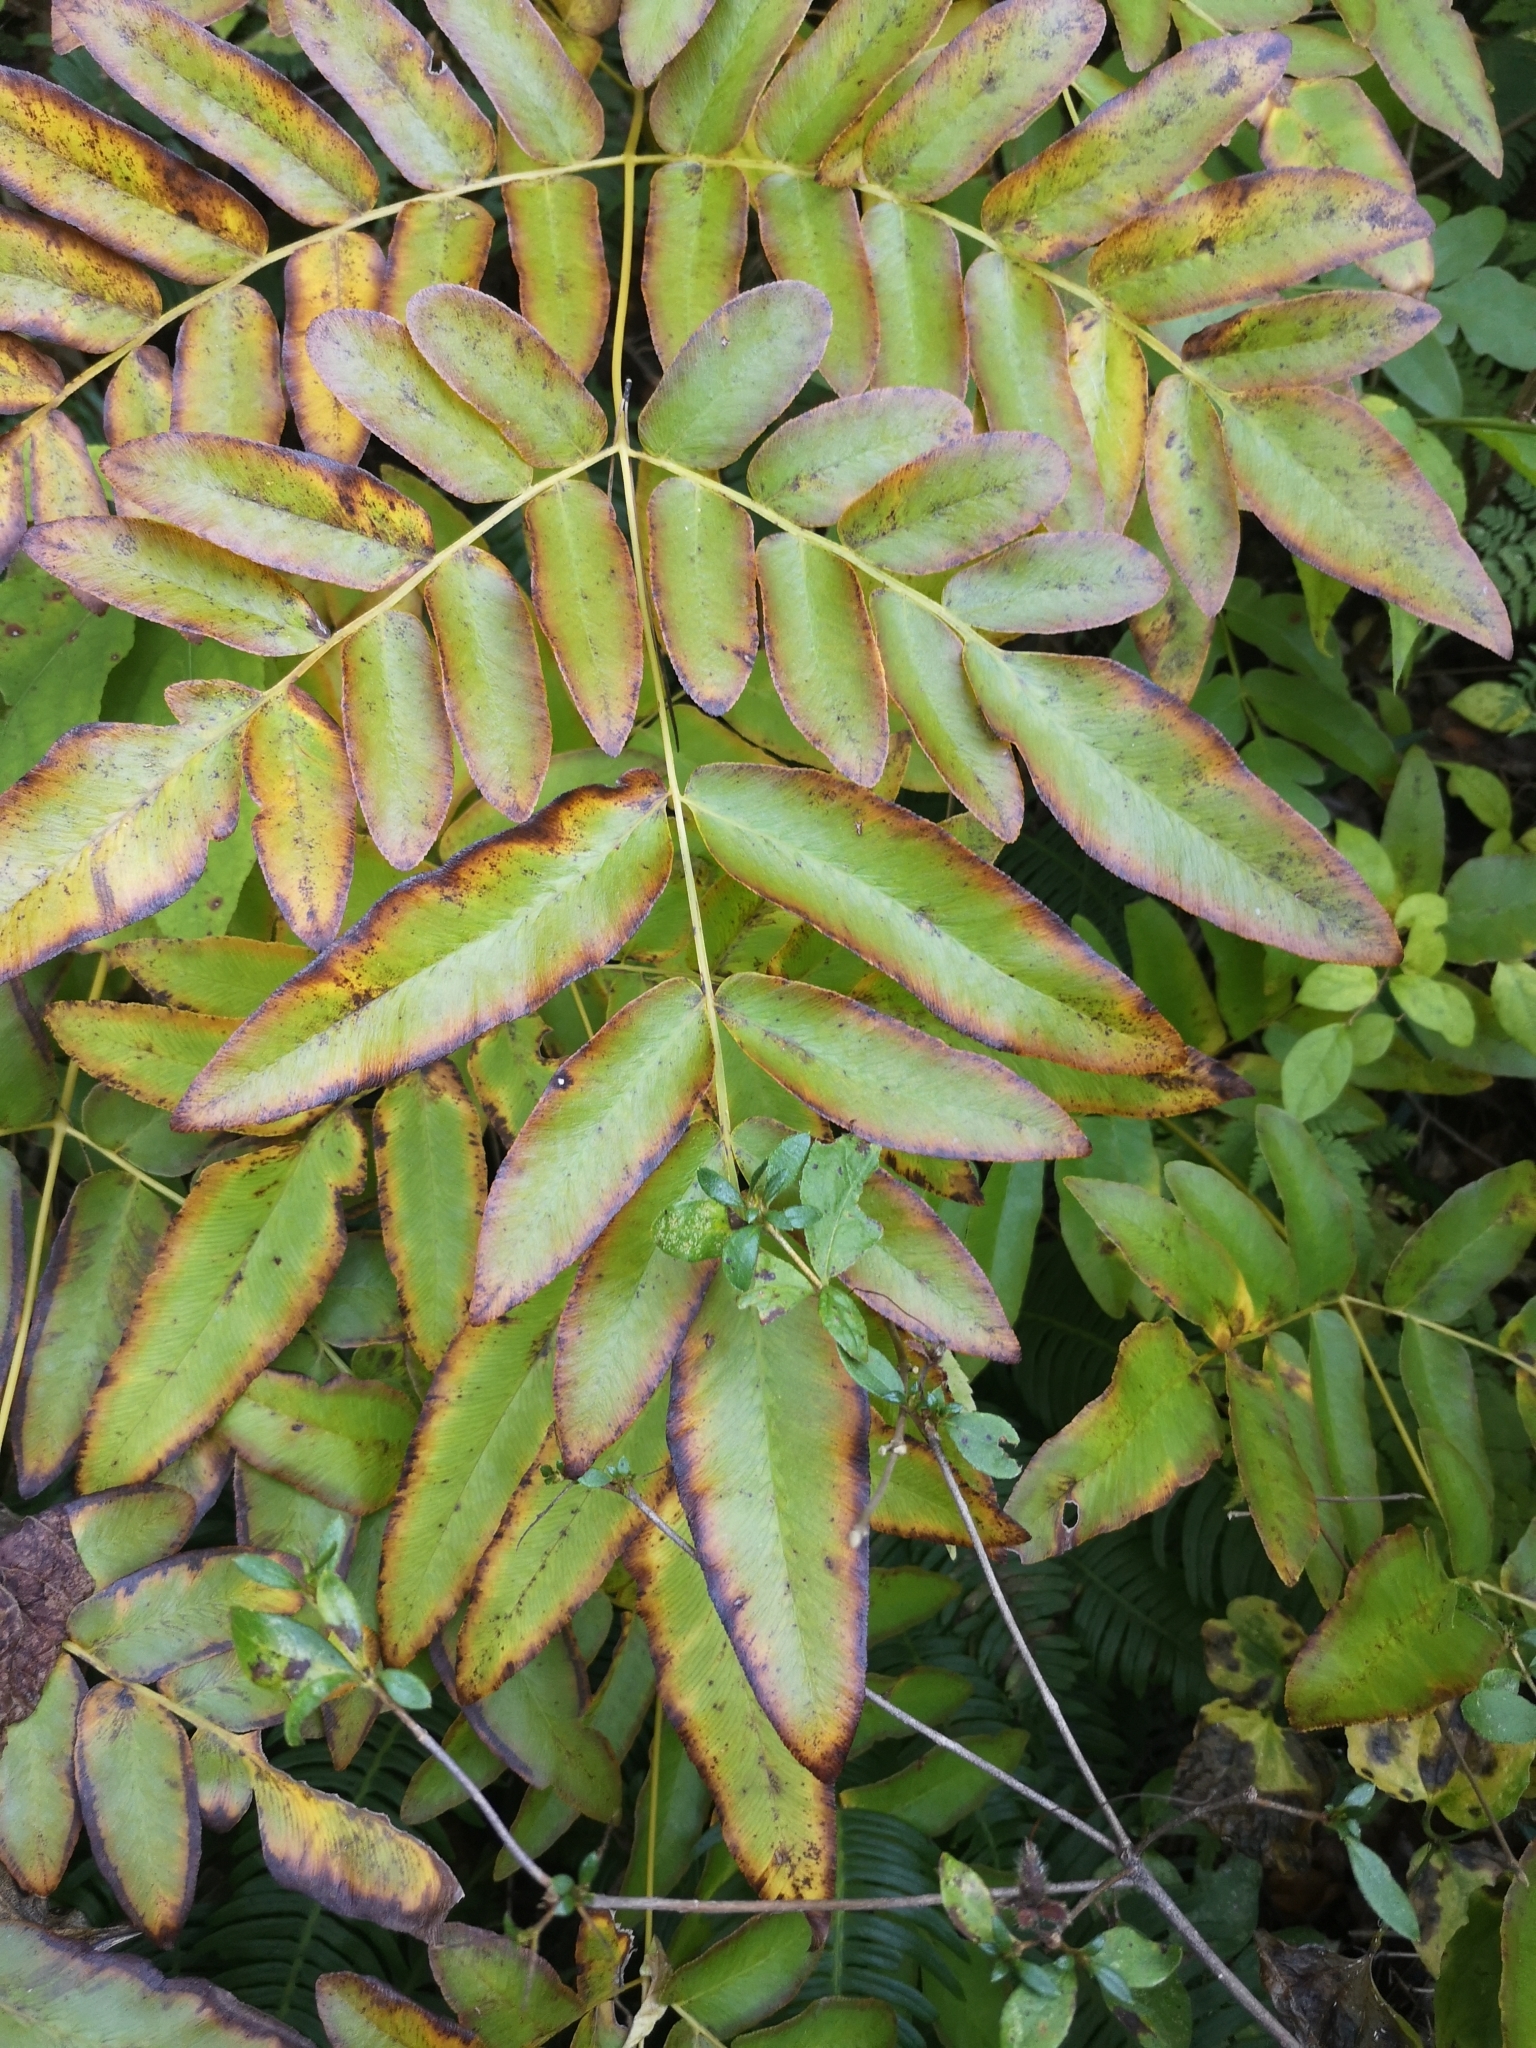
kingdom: Plantae
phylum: Tracheophyta
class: Polypodiopsida
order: Osmundales
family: Osmundaceae
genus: Osmunda
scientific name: Osmunda japonica
